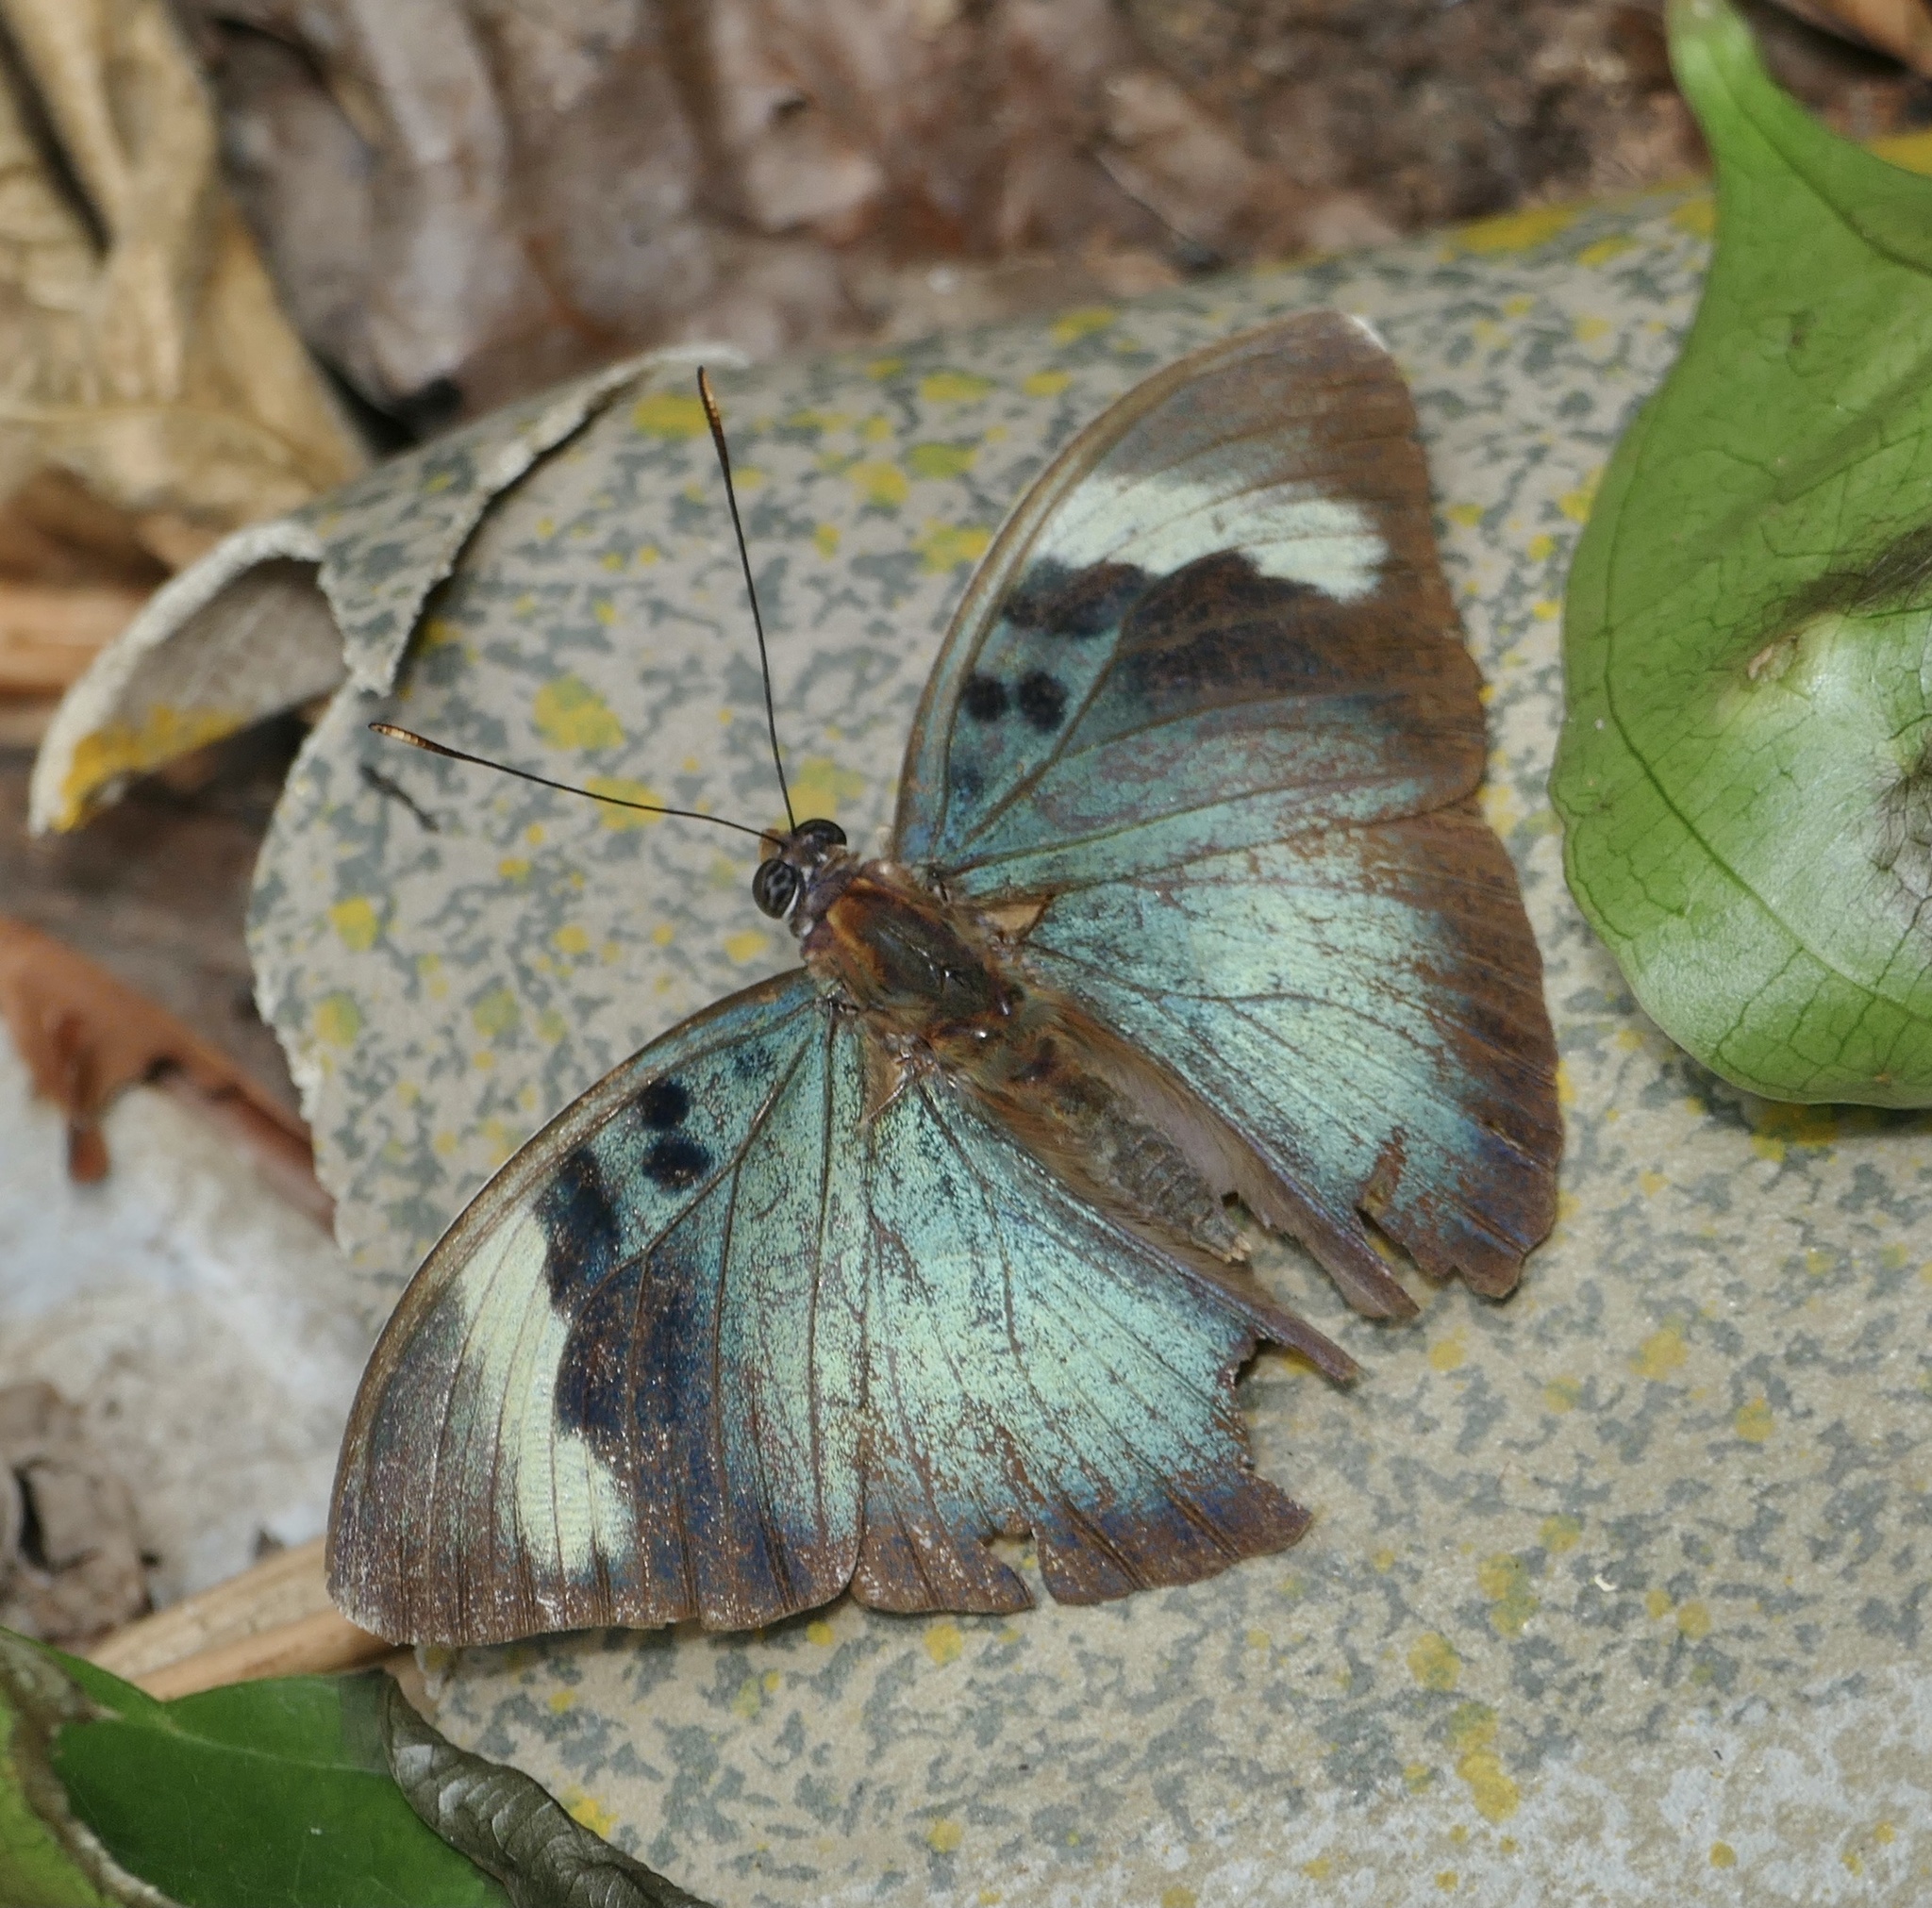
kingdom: Animalia
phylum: Arthropoda
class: Insecta
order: Lepidoptera
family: Nymphalidae
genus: Euphaedra
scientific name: Euphaedra medon
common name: Widespread forester
